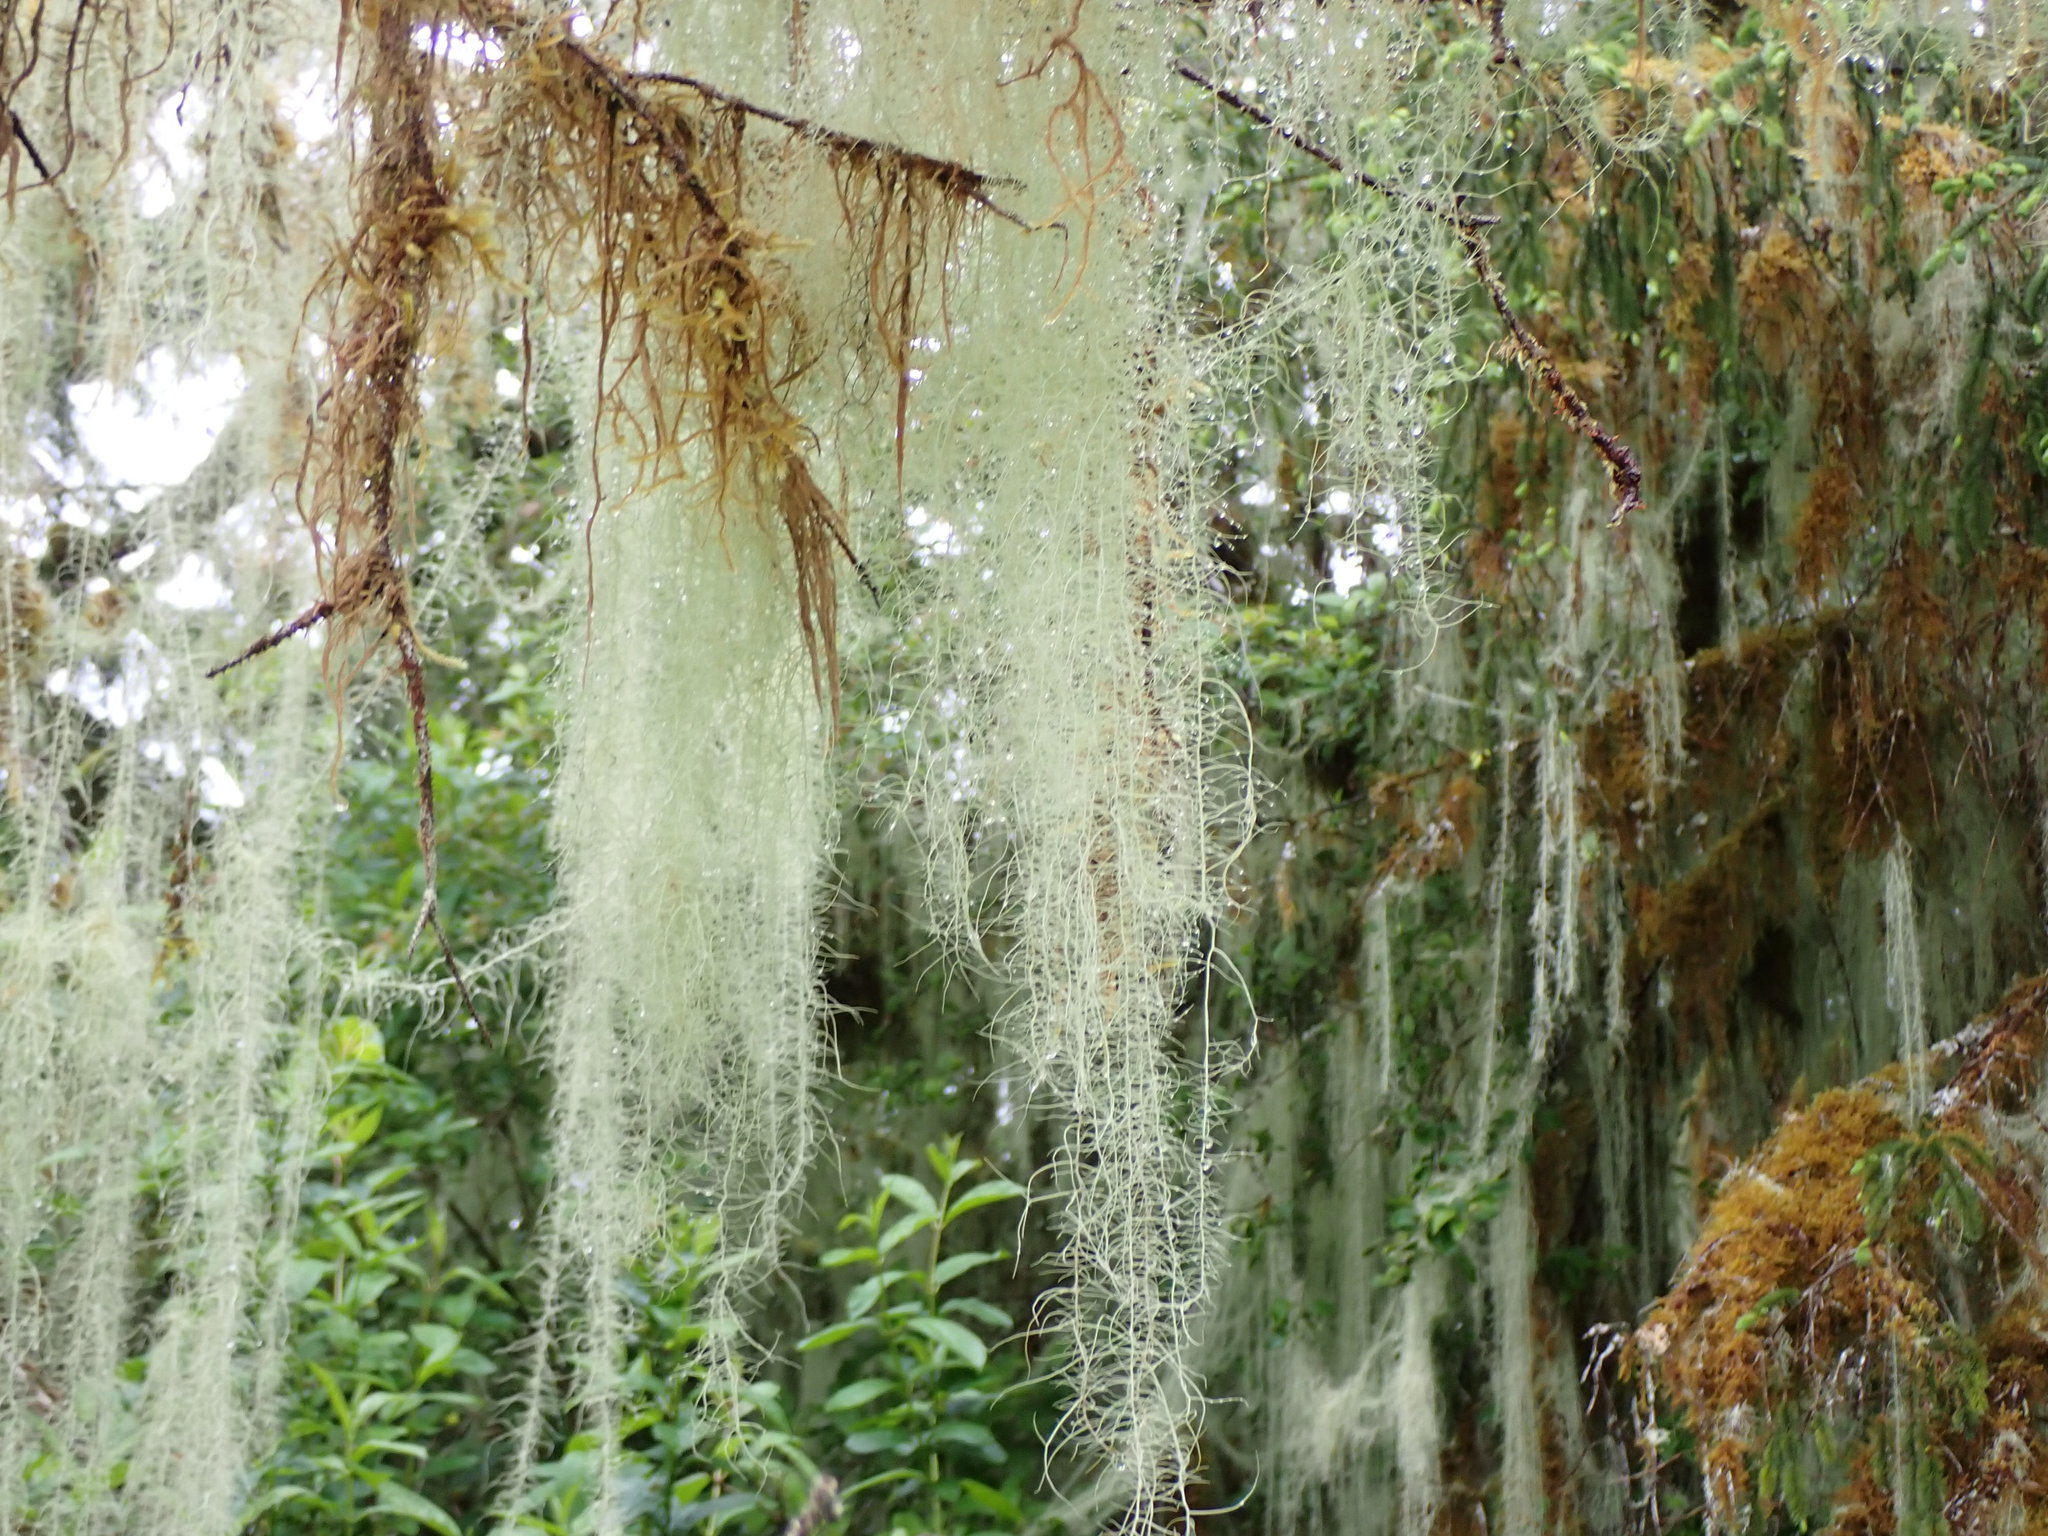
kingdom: Fungi
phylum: Ascomycota
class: Lecanoromycetes
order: Lecanorales
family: Parmeliaceae
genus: Dolichousnea
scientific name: Dolichousnea longissima
